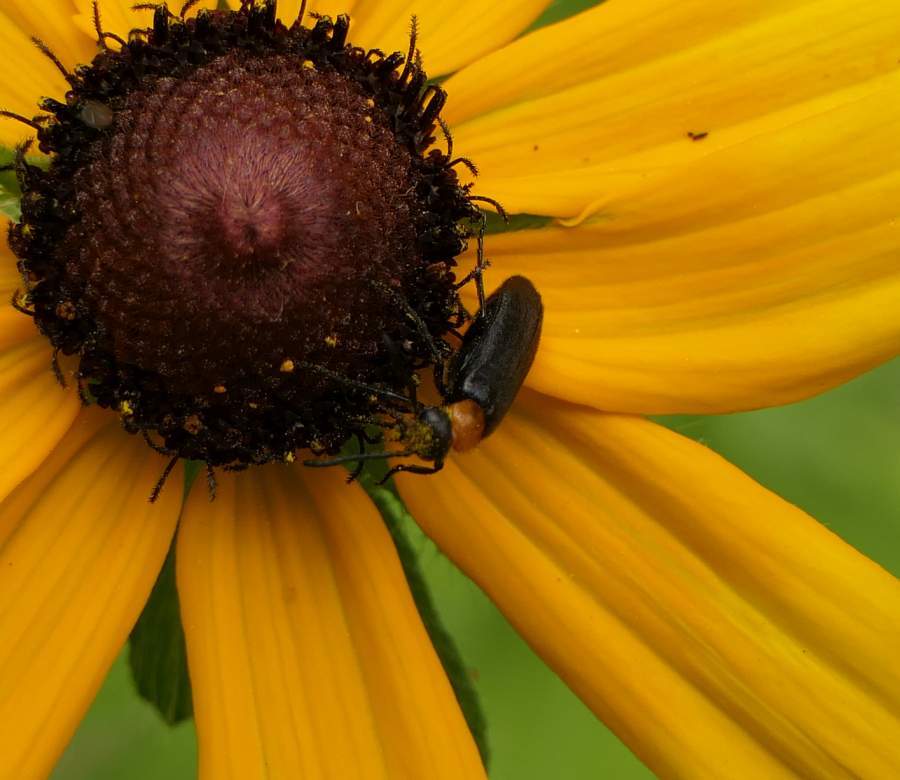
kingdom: Animalia
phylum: Arthropoda
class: Insecta
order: Coleoptera
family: Meloidae
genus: Nemognatha
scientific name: Nemognatha nemorensis
